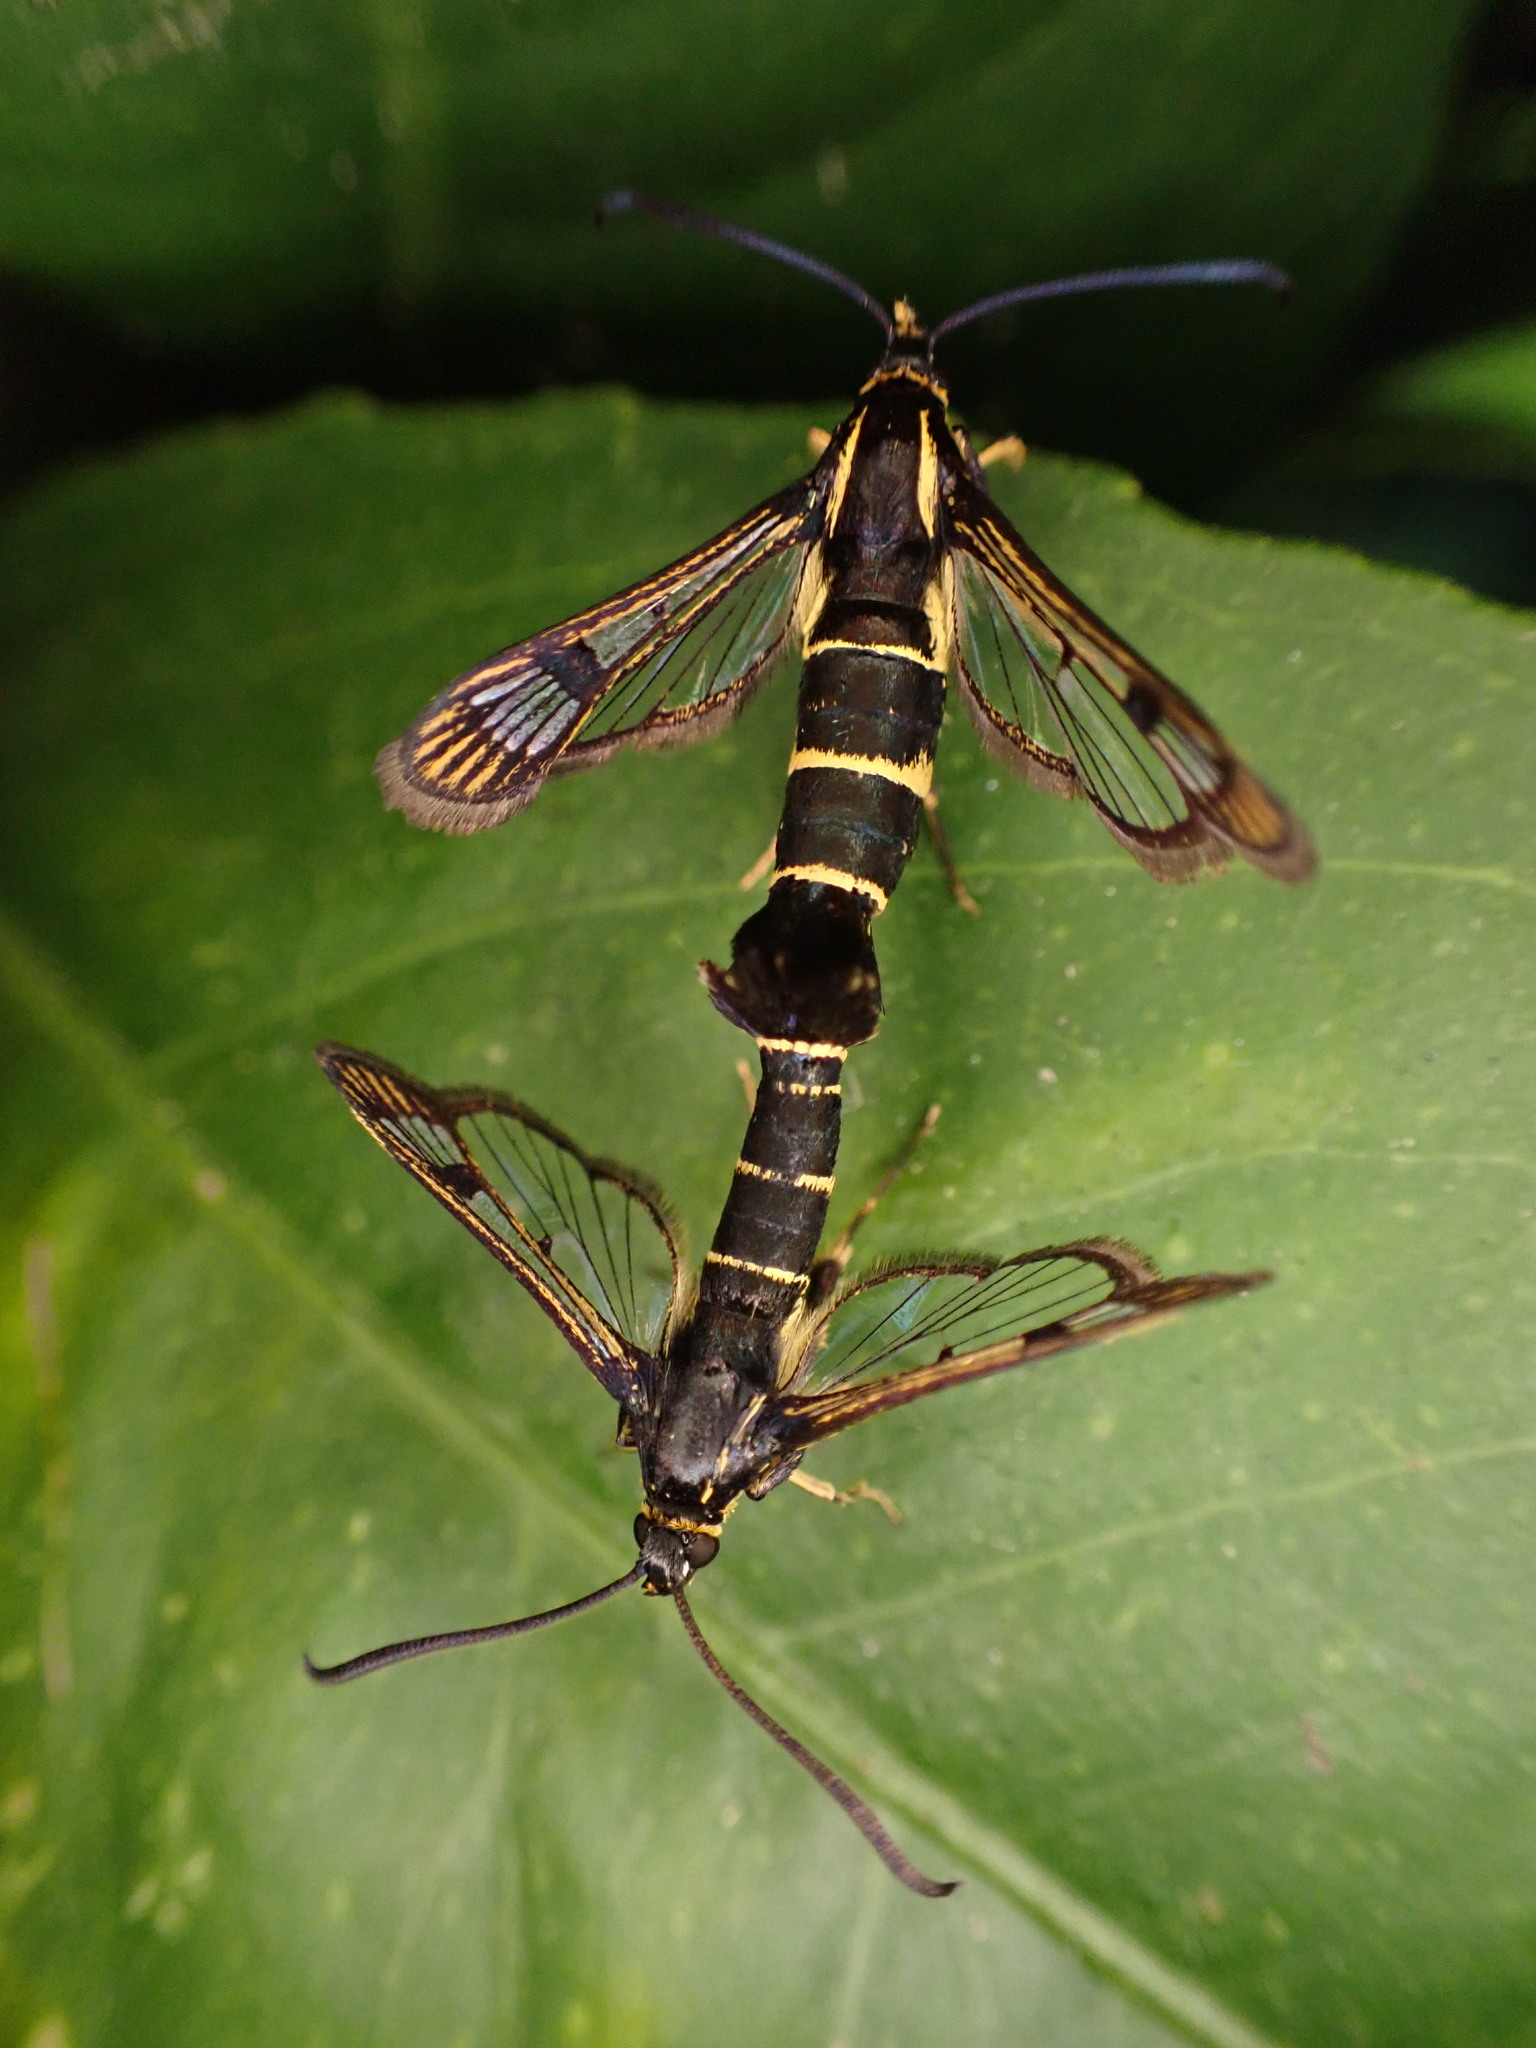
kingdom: Animalia
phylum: Arthropoda
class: Insecta
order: Lepidoptera
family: Sesiidae
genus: Synanthedon
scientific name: Synanthedon tipuliformis
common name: Currant clearwing
